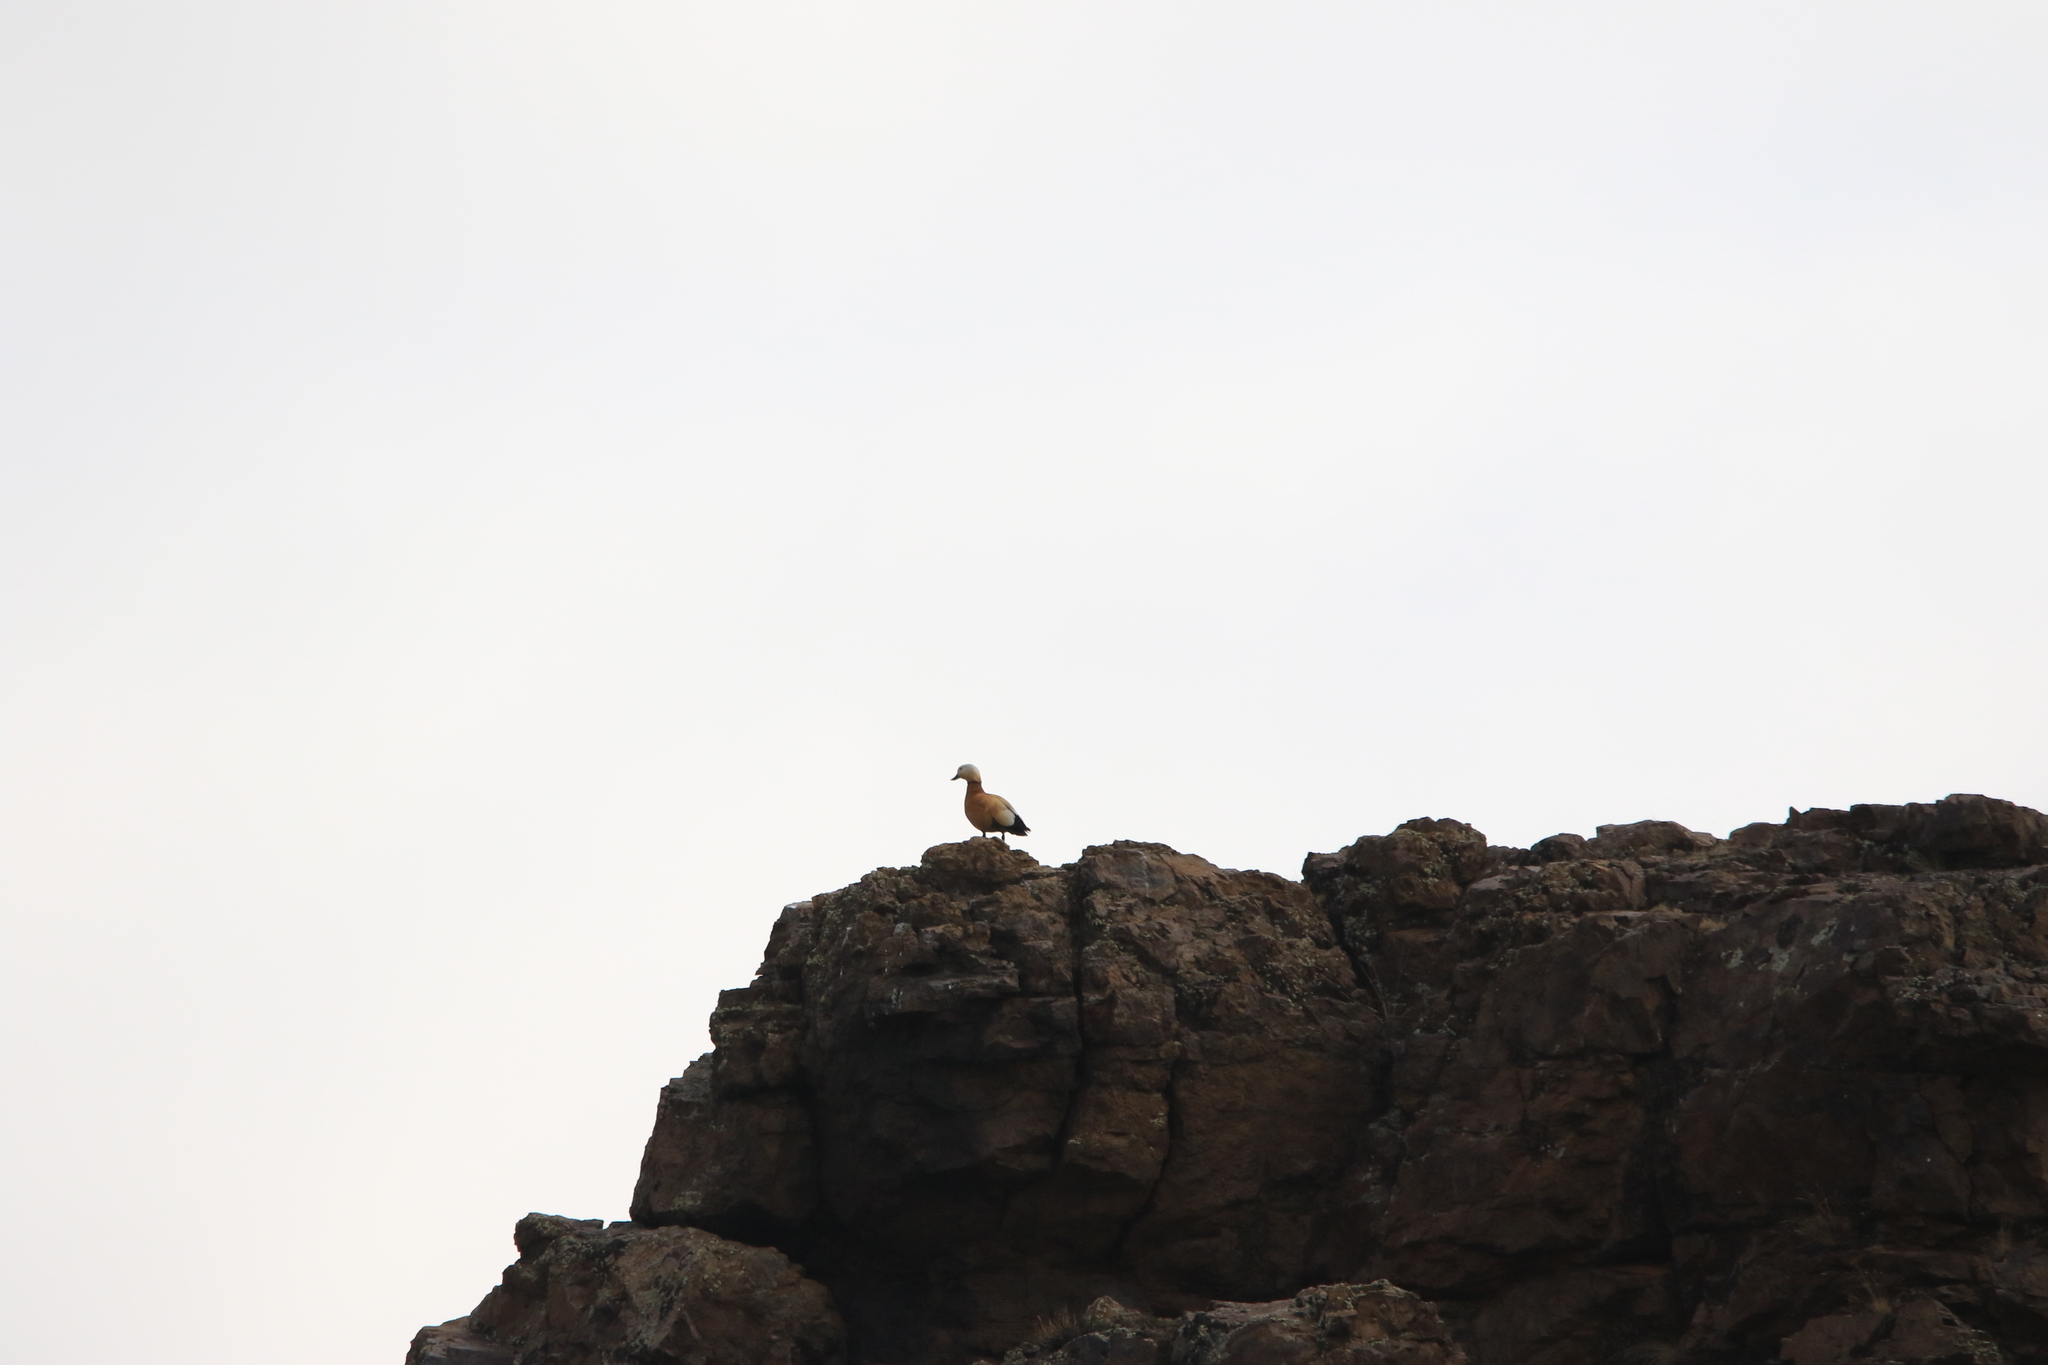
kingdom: Animalia
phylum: Chordata
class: Aves
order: Anseriformes
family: Anatidae
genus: Tadorna
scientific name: Tadorna ferruginea
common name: Ruddy shelduck
